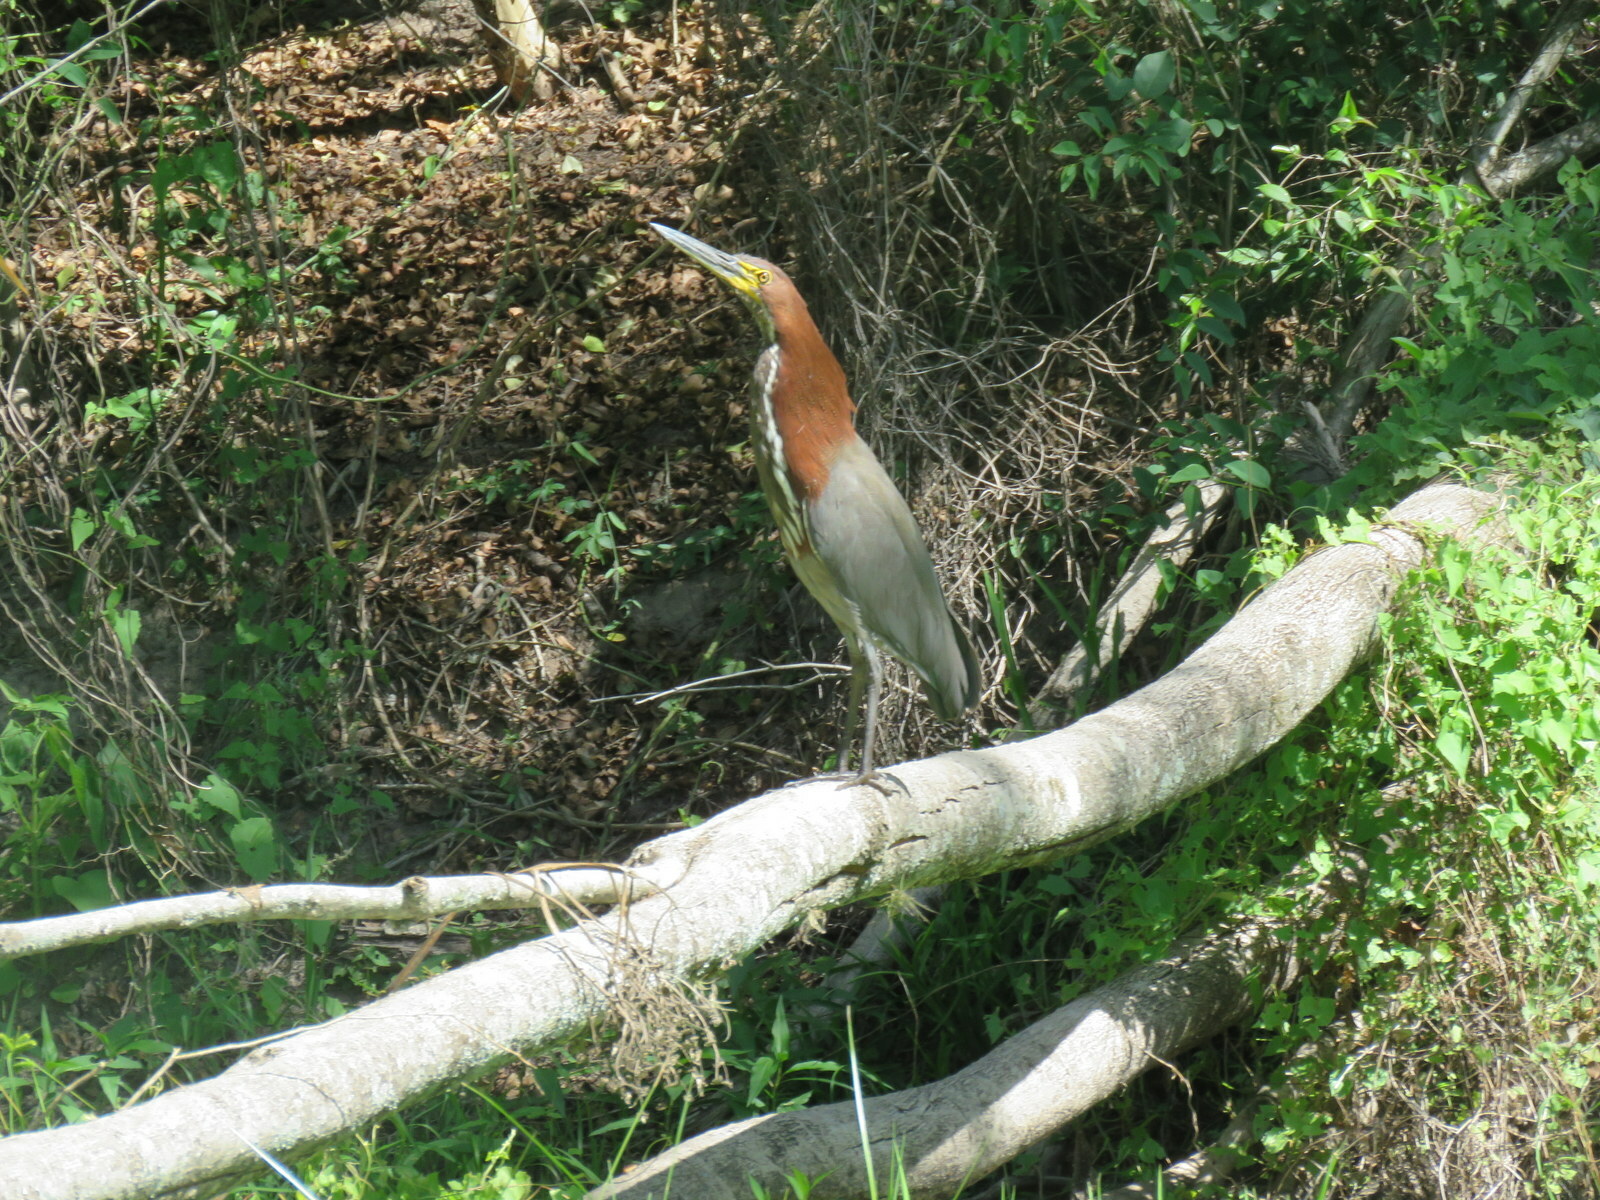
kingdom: Animalia
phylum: Chordata
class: Aves
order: Pelecaniformes
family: Ardeidae
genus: Tigrisoma
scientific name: Tigrisoma lineatum
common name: Rufescent tiger-heron
